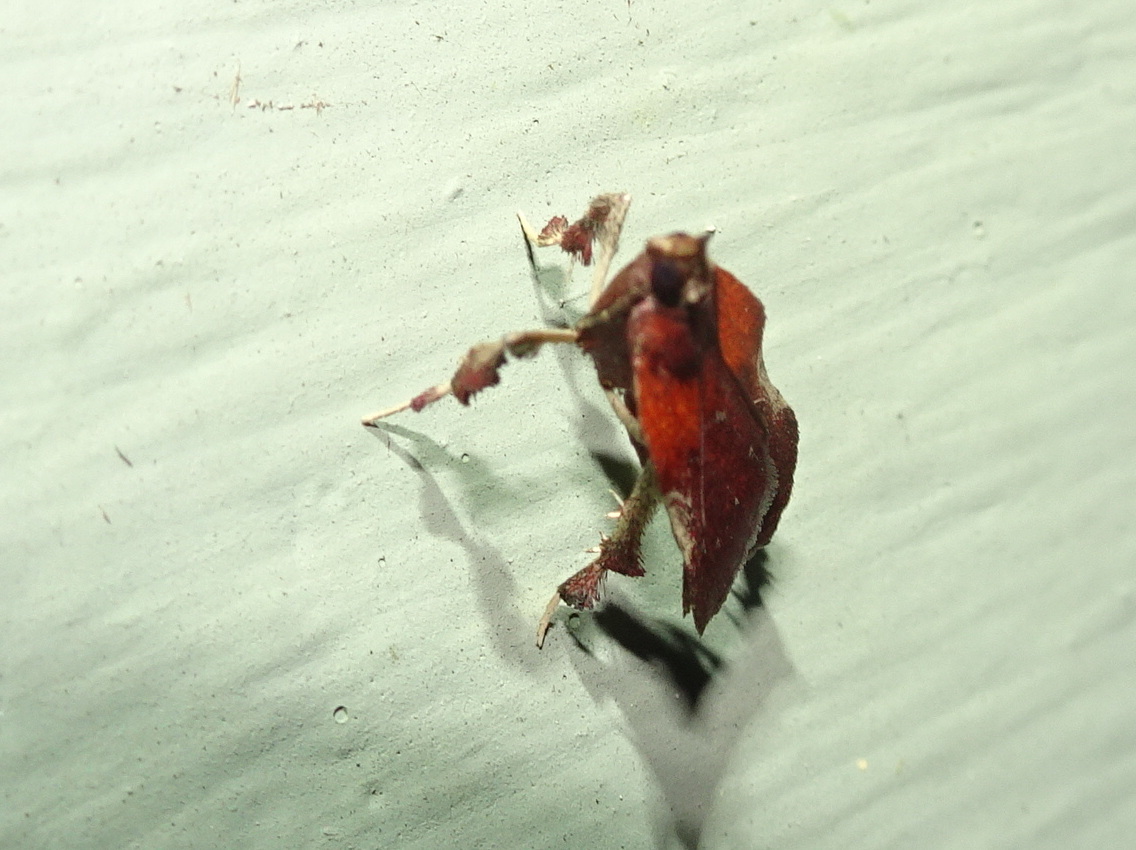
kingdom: Animalia
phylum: Arthropoda
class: Insecta
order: Lepidoptera
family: Pyralidae
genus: Galasa
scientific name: Galasa nigrinodis
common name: Boxwood leaftier moth
